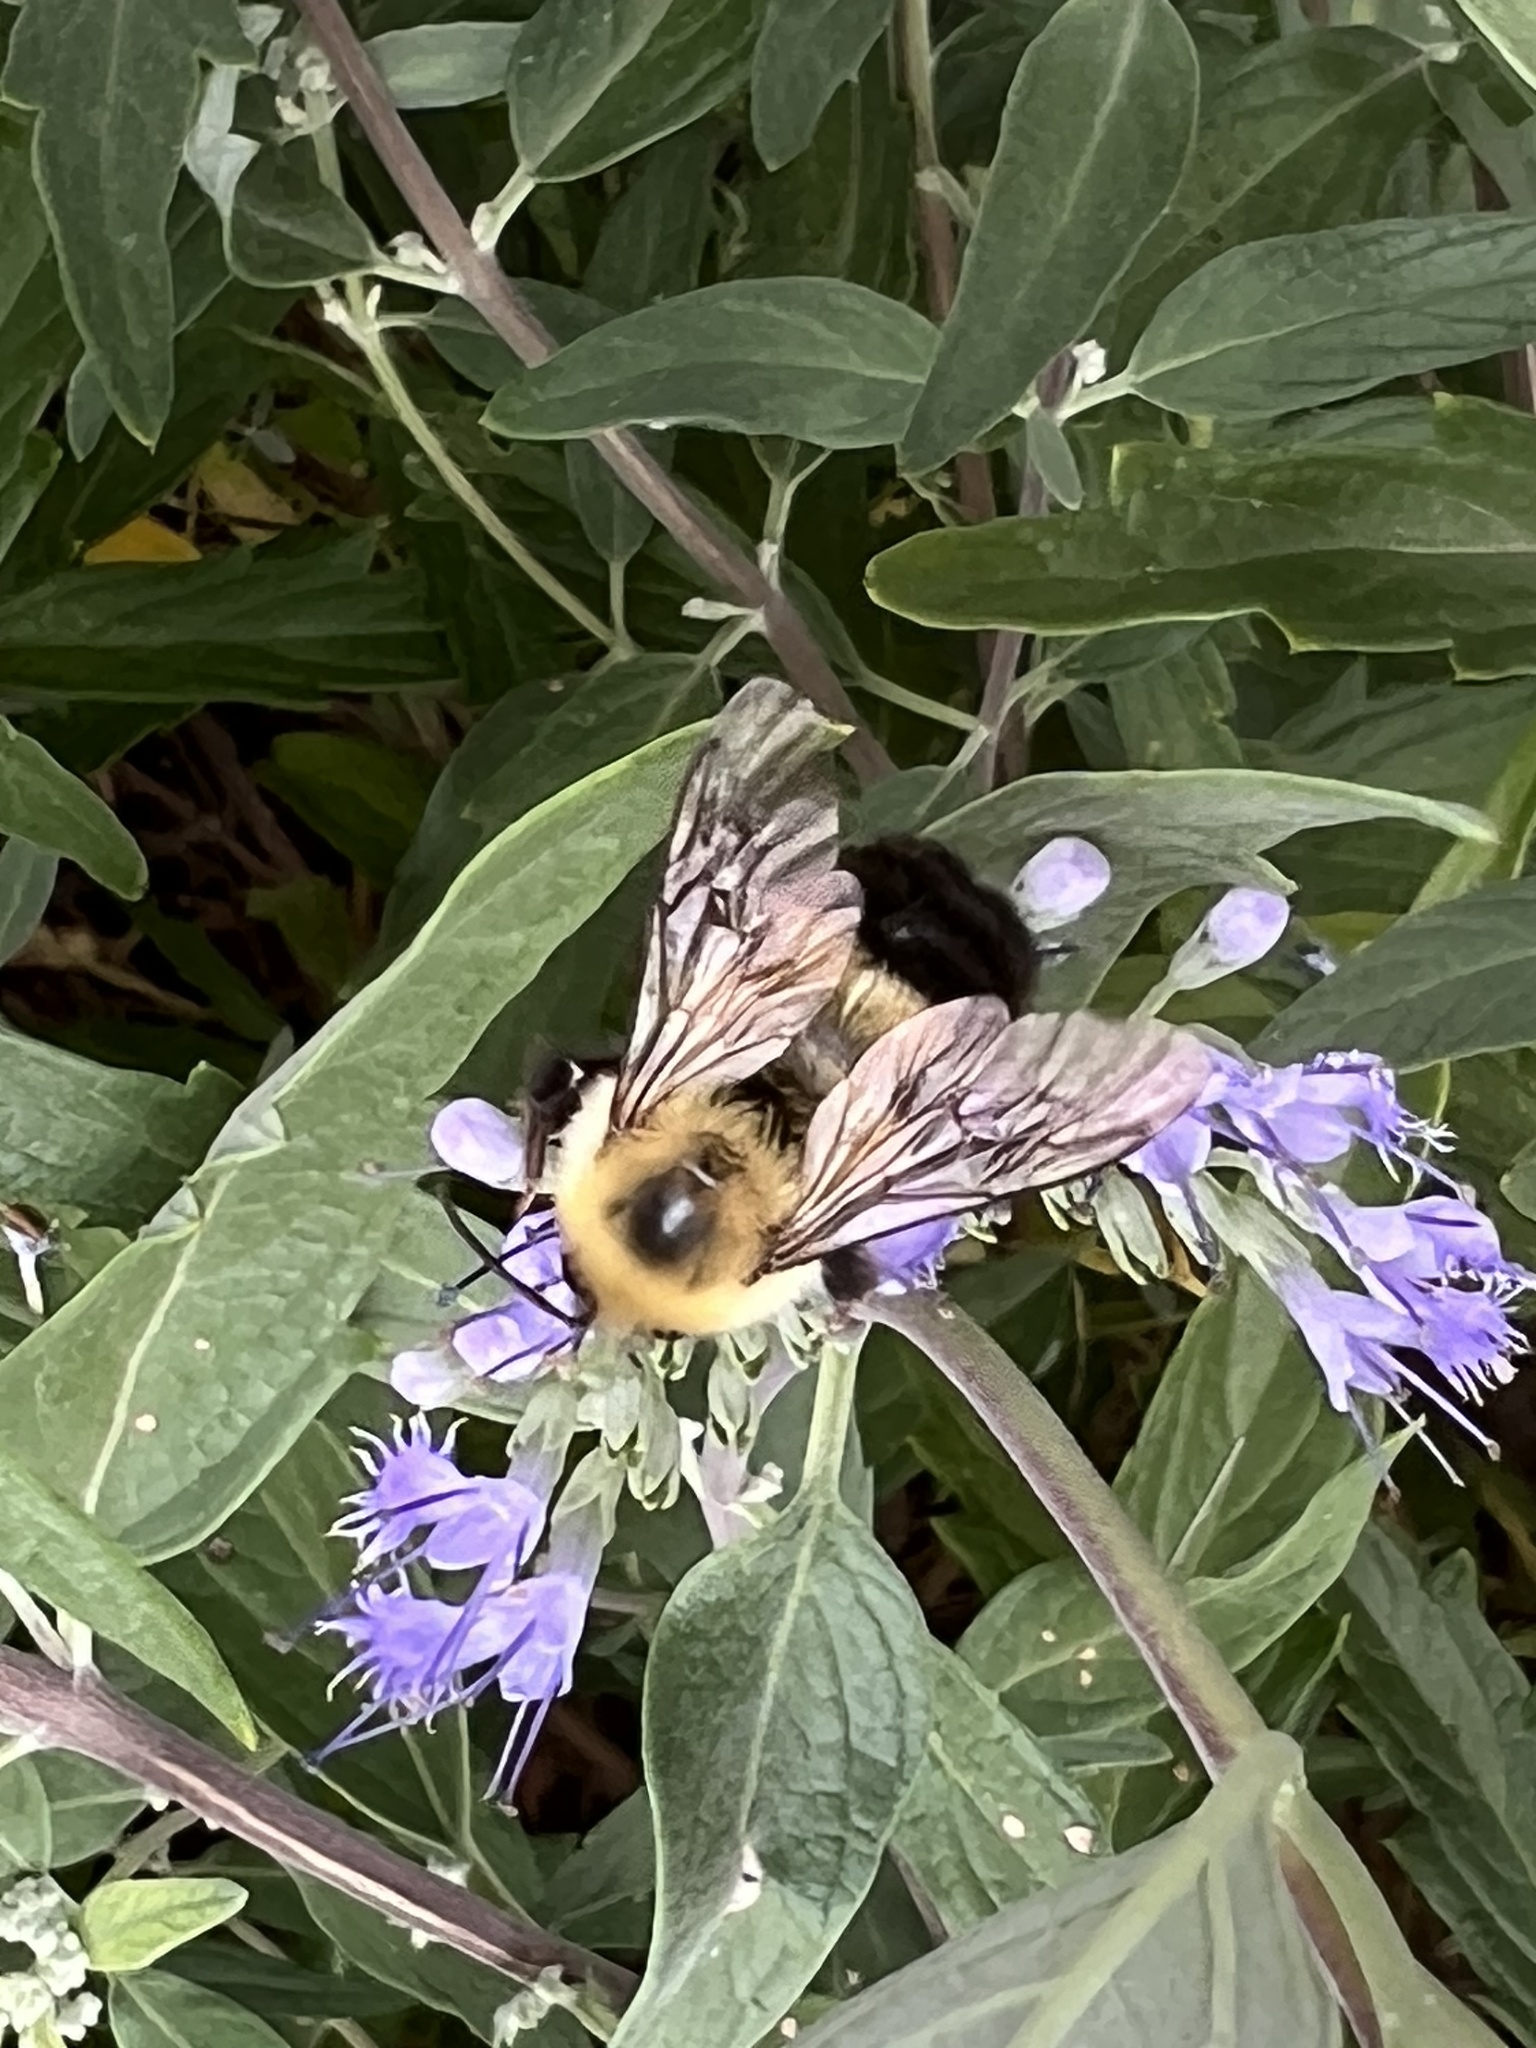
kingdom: Animalia
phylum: Arthropoda
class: Insecta
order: Hymenoptera
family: Apidae
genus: Bombus
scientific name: Bombus bimaculatus
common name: Two-spotted bumble bee
